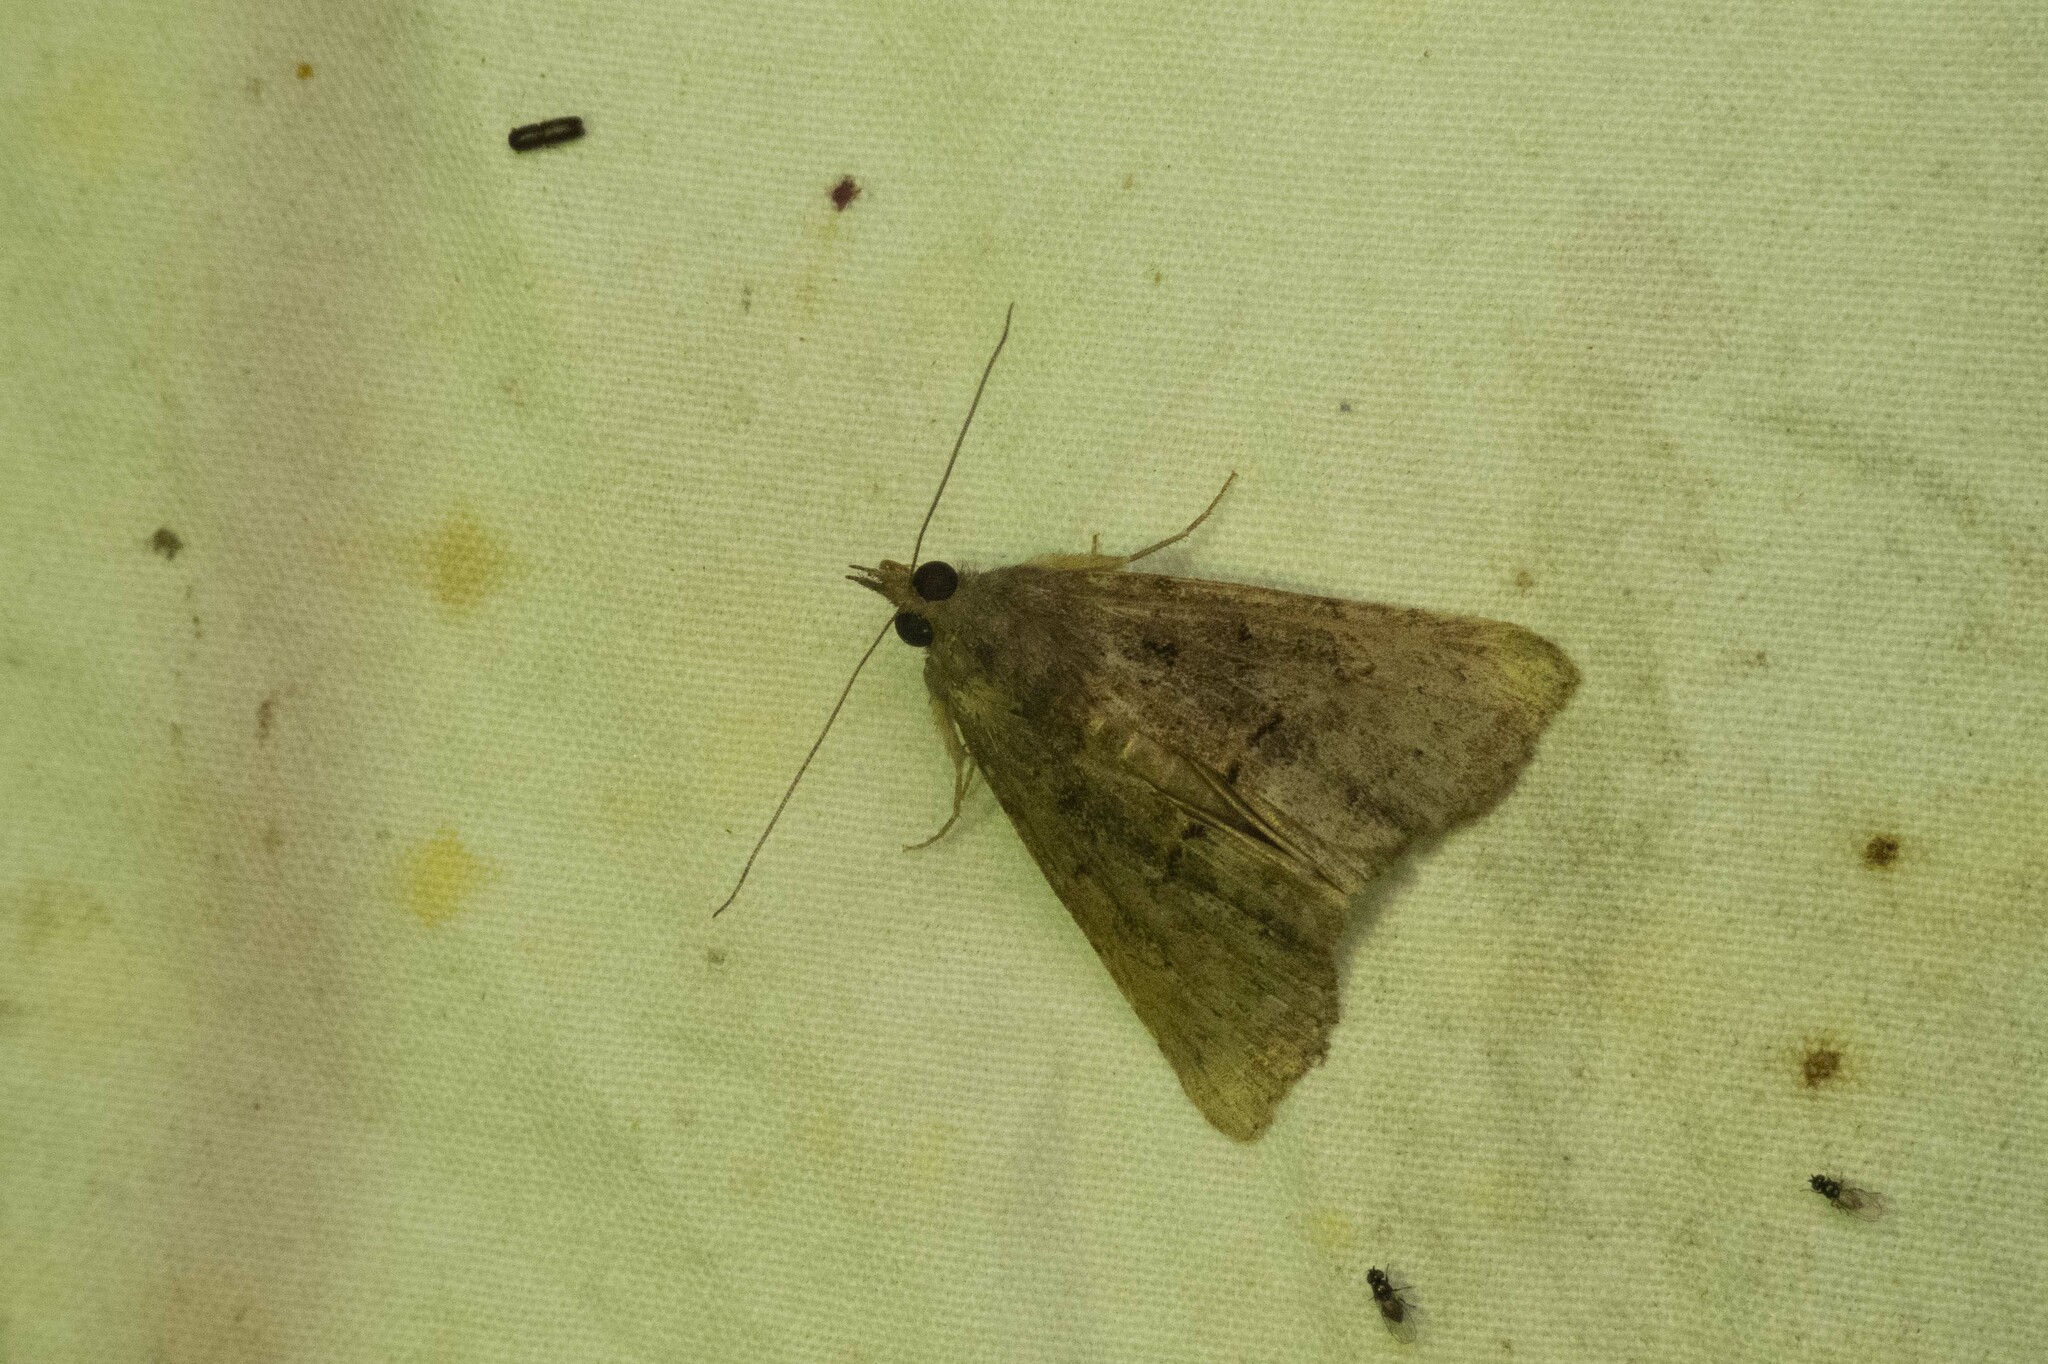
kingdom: Animalia
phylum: Arthropoda
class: Insecta
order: Lepidoptera
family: Erebidae
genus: Hypena
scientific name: Hypena scabra
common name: Green cloverworm
